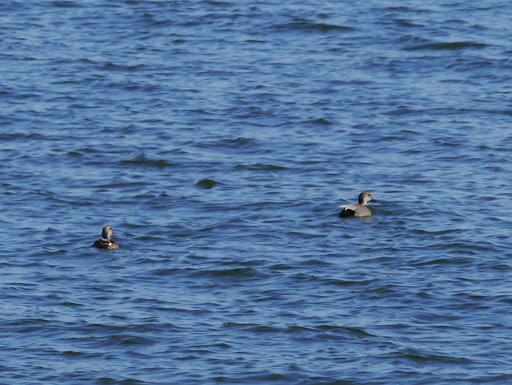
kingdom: Animalia
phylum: Chordata
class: Aves
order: Anseriformes
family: Anatidae
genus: Mareca
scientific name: Mareca strepera
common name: Gadwall
